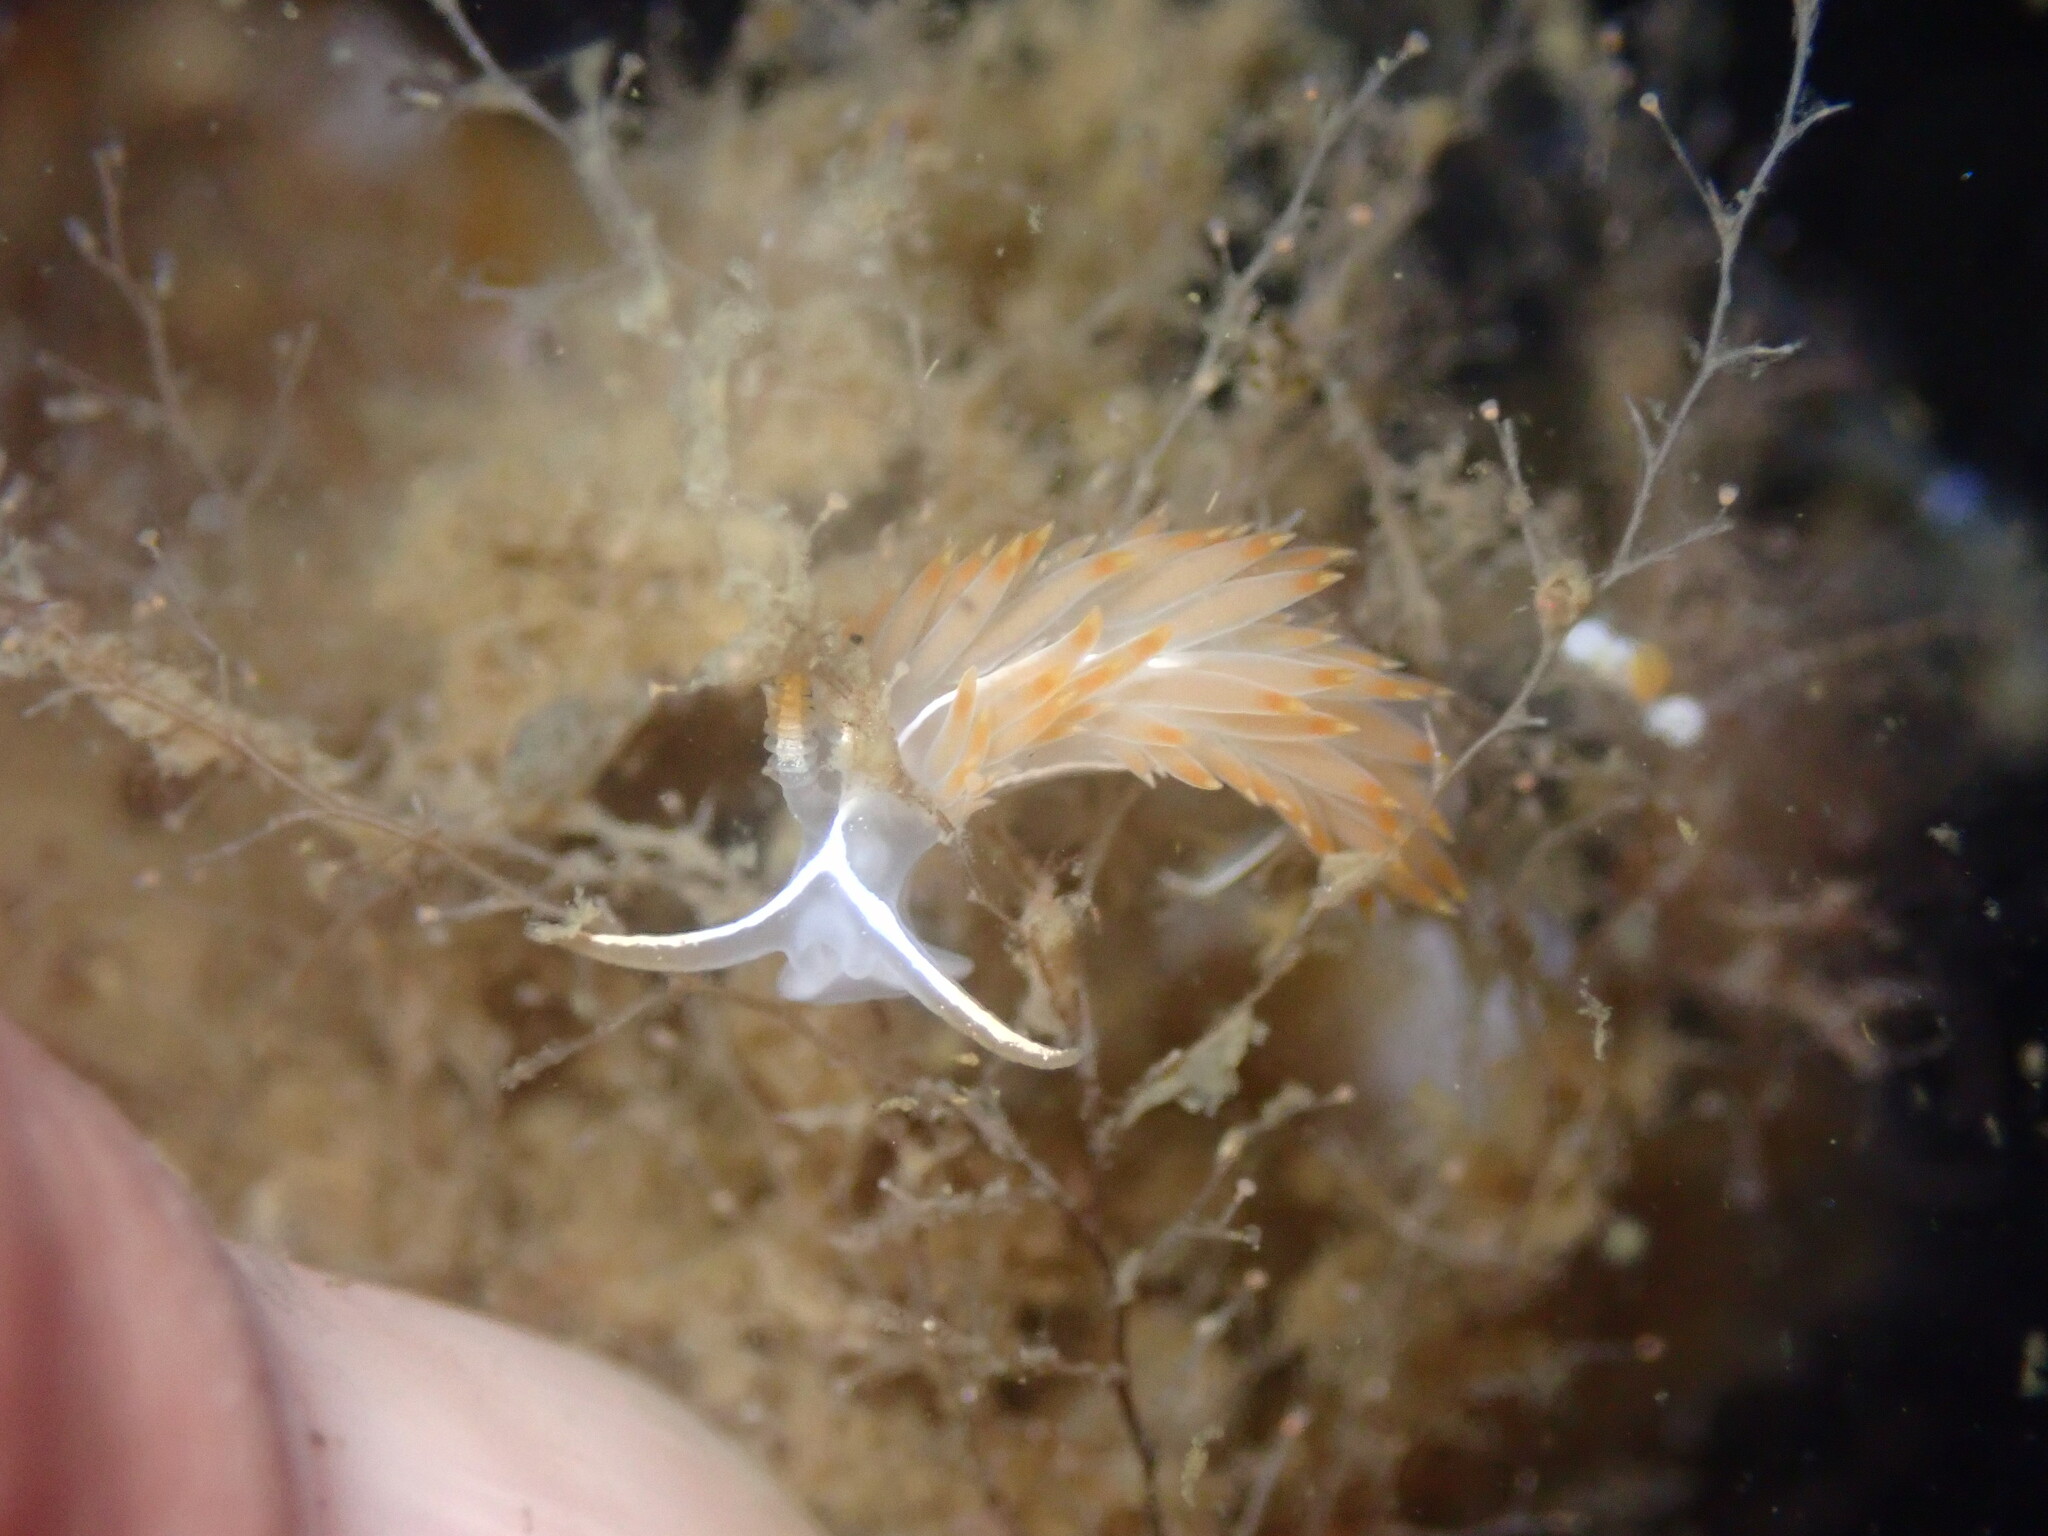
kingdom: Animalia
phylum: Mollusca
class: Gastropoda
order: Nudibranchia
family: Coryphellidae
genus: Coryphella
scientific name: Coryphella trilineata
